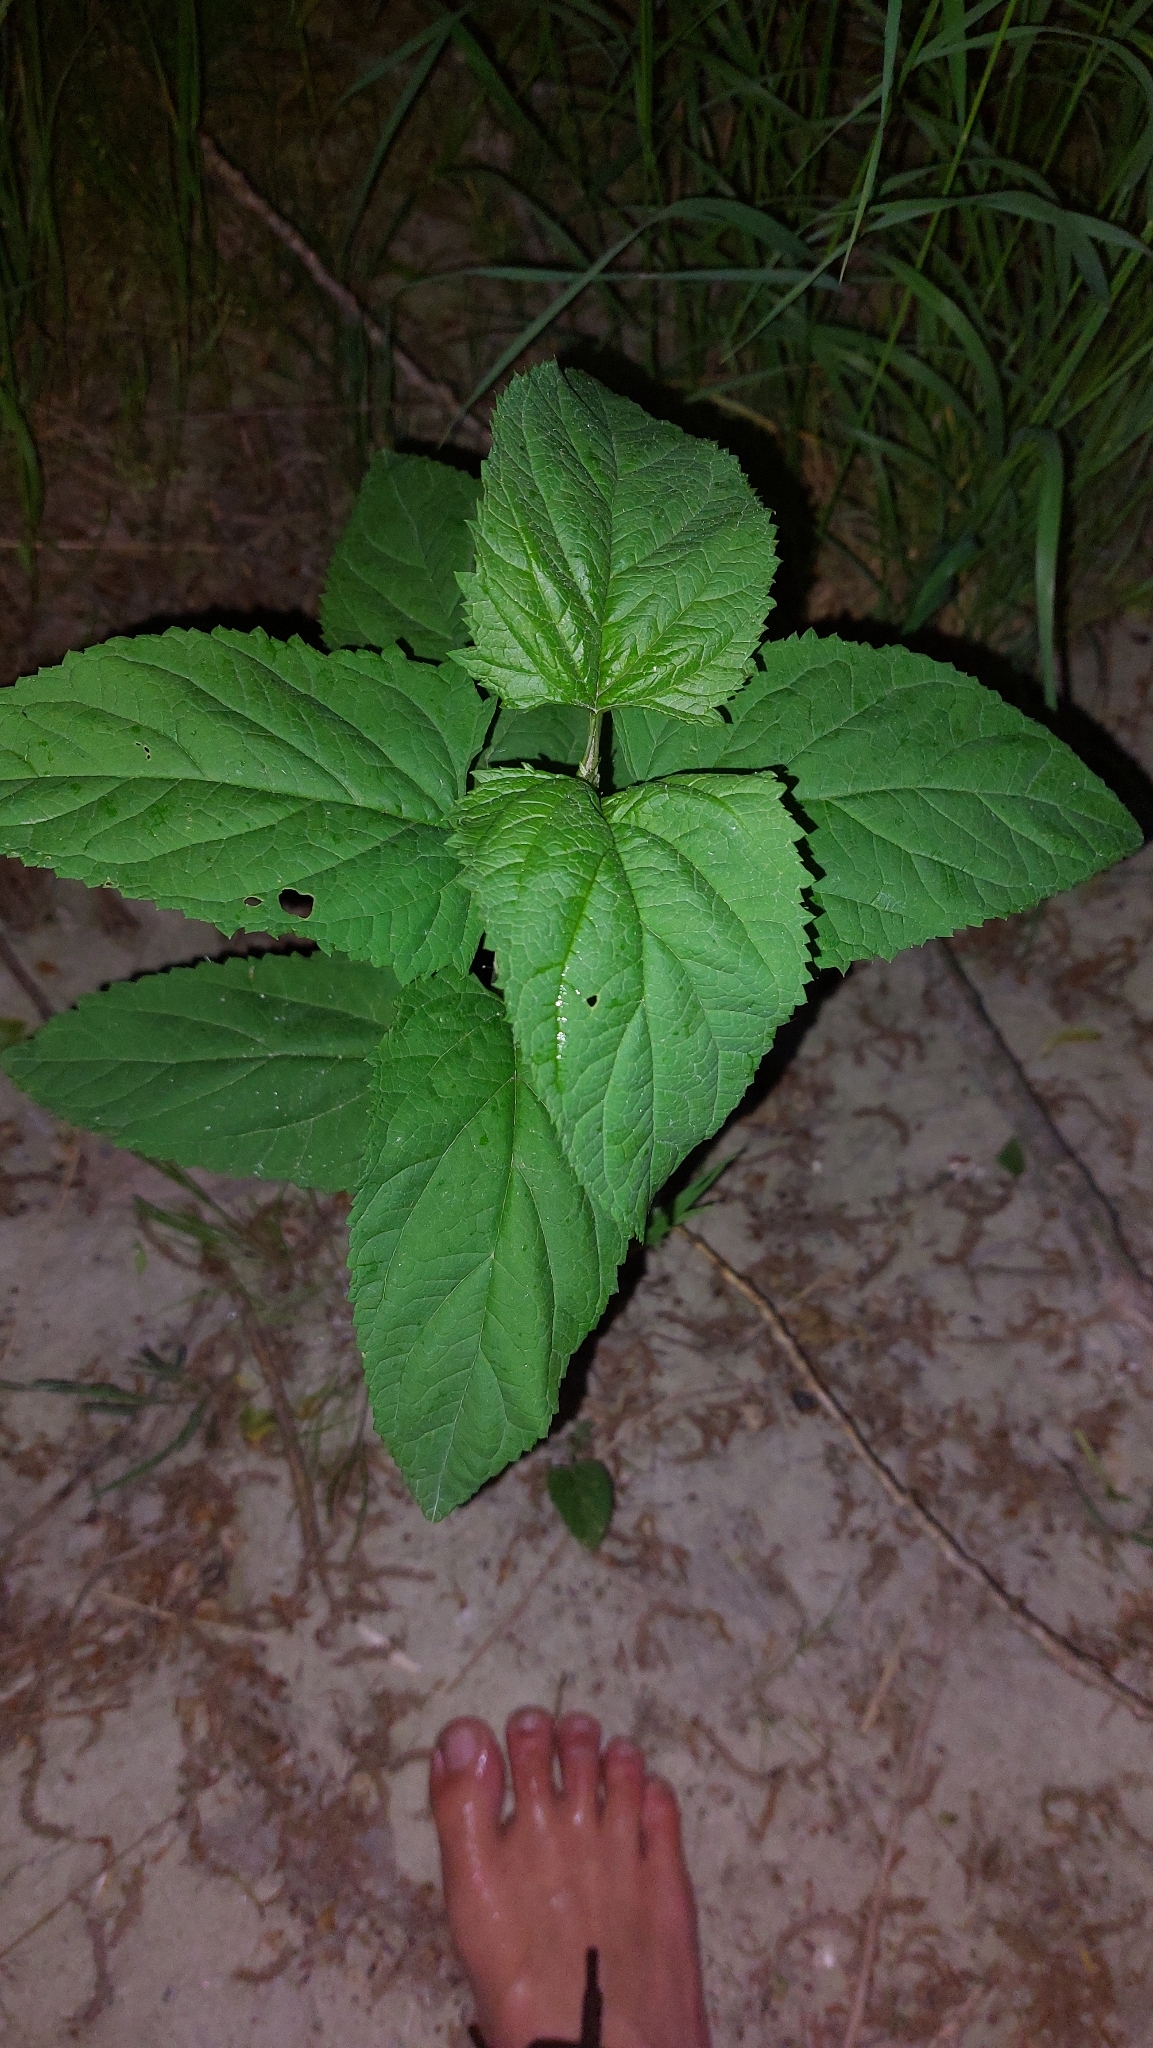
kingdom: Plantae
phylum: Tracheophyta
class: Magnoliopsida
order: Lamiales
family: Scrophulariaceae
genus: Scrophularia
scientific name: Scrophularia nodosa
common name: Common figwort
